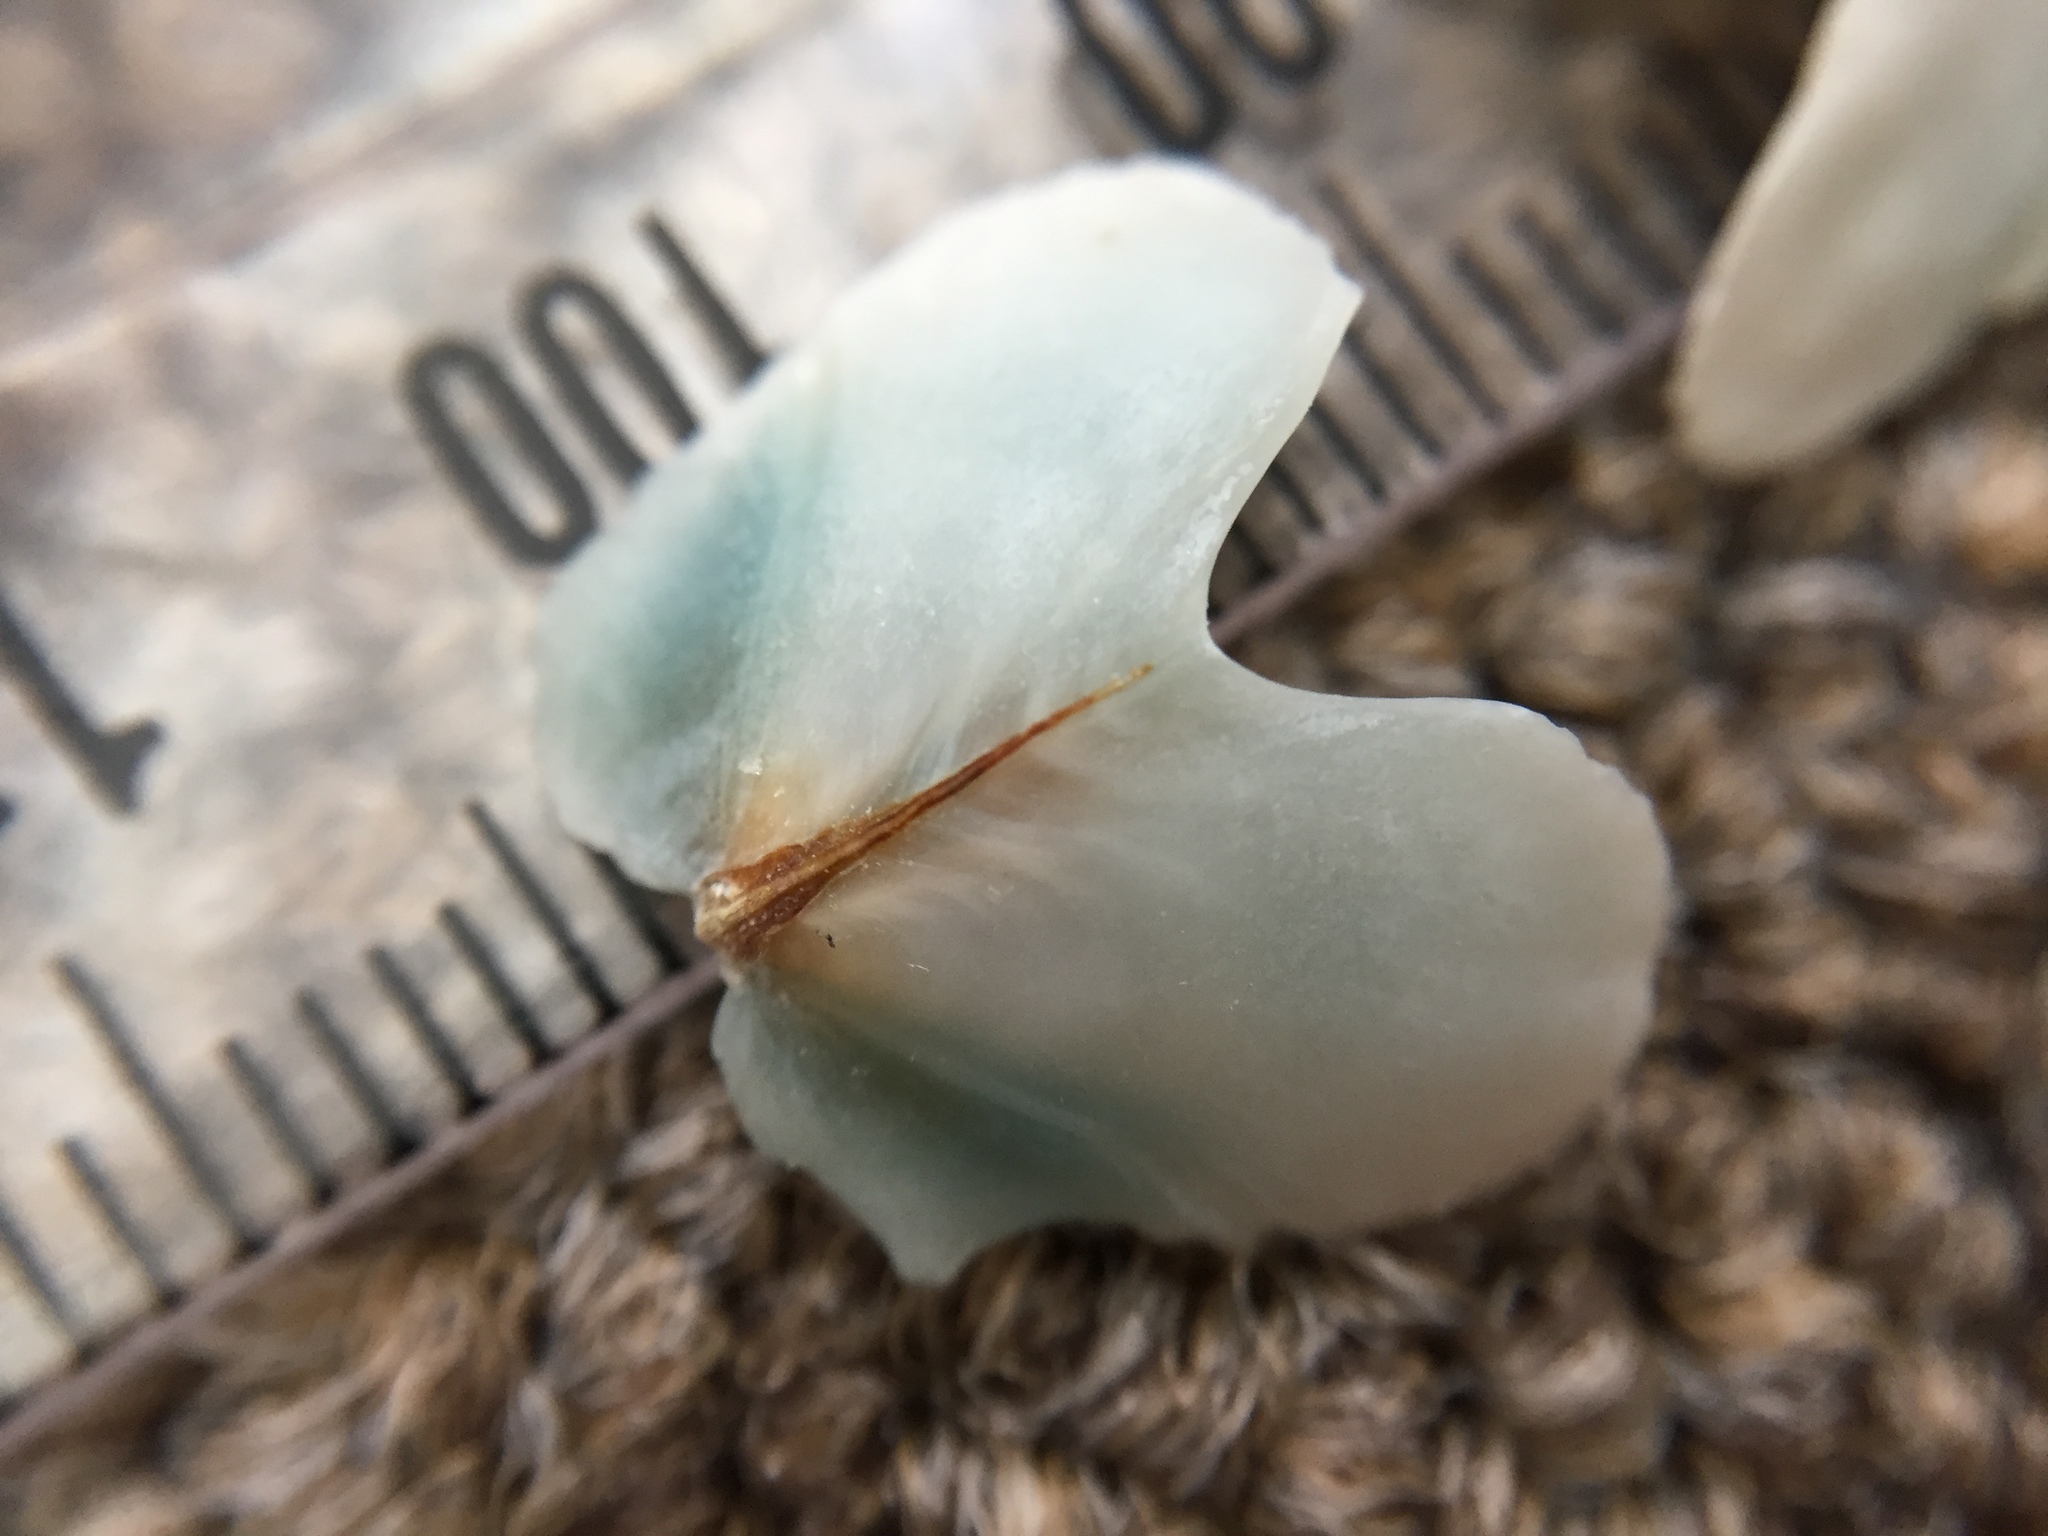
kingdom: Animalia
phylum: Mollusca
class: Polyplacophora
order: Chitonida
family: Acanthochitonidae
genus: Cryptoconchus
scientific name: Cryptoconchus porosus
